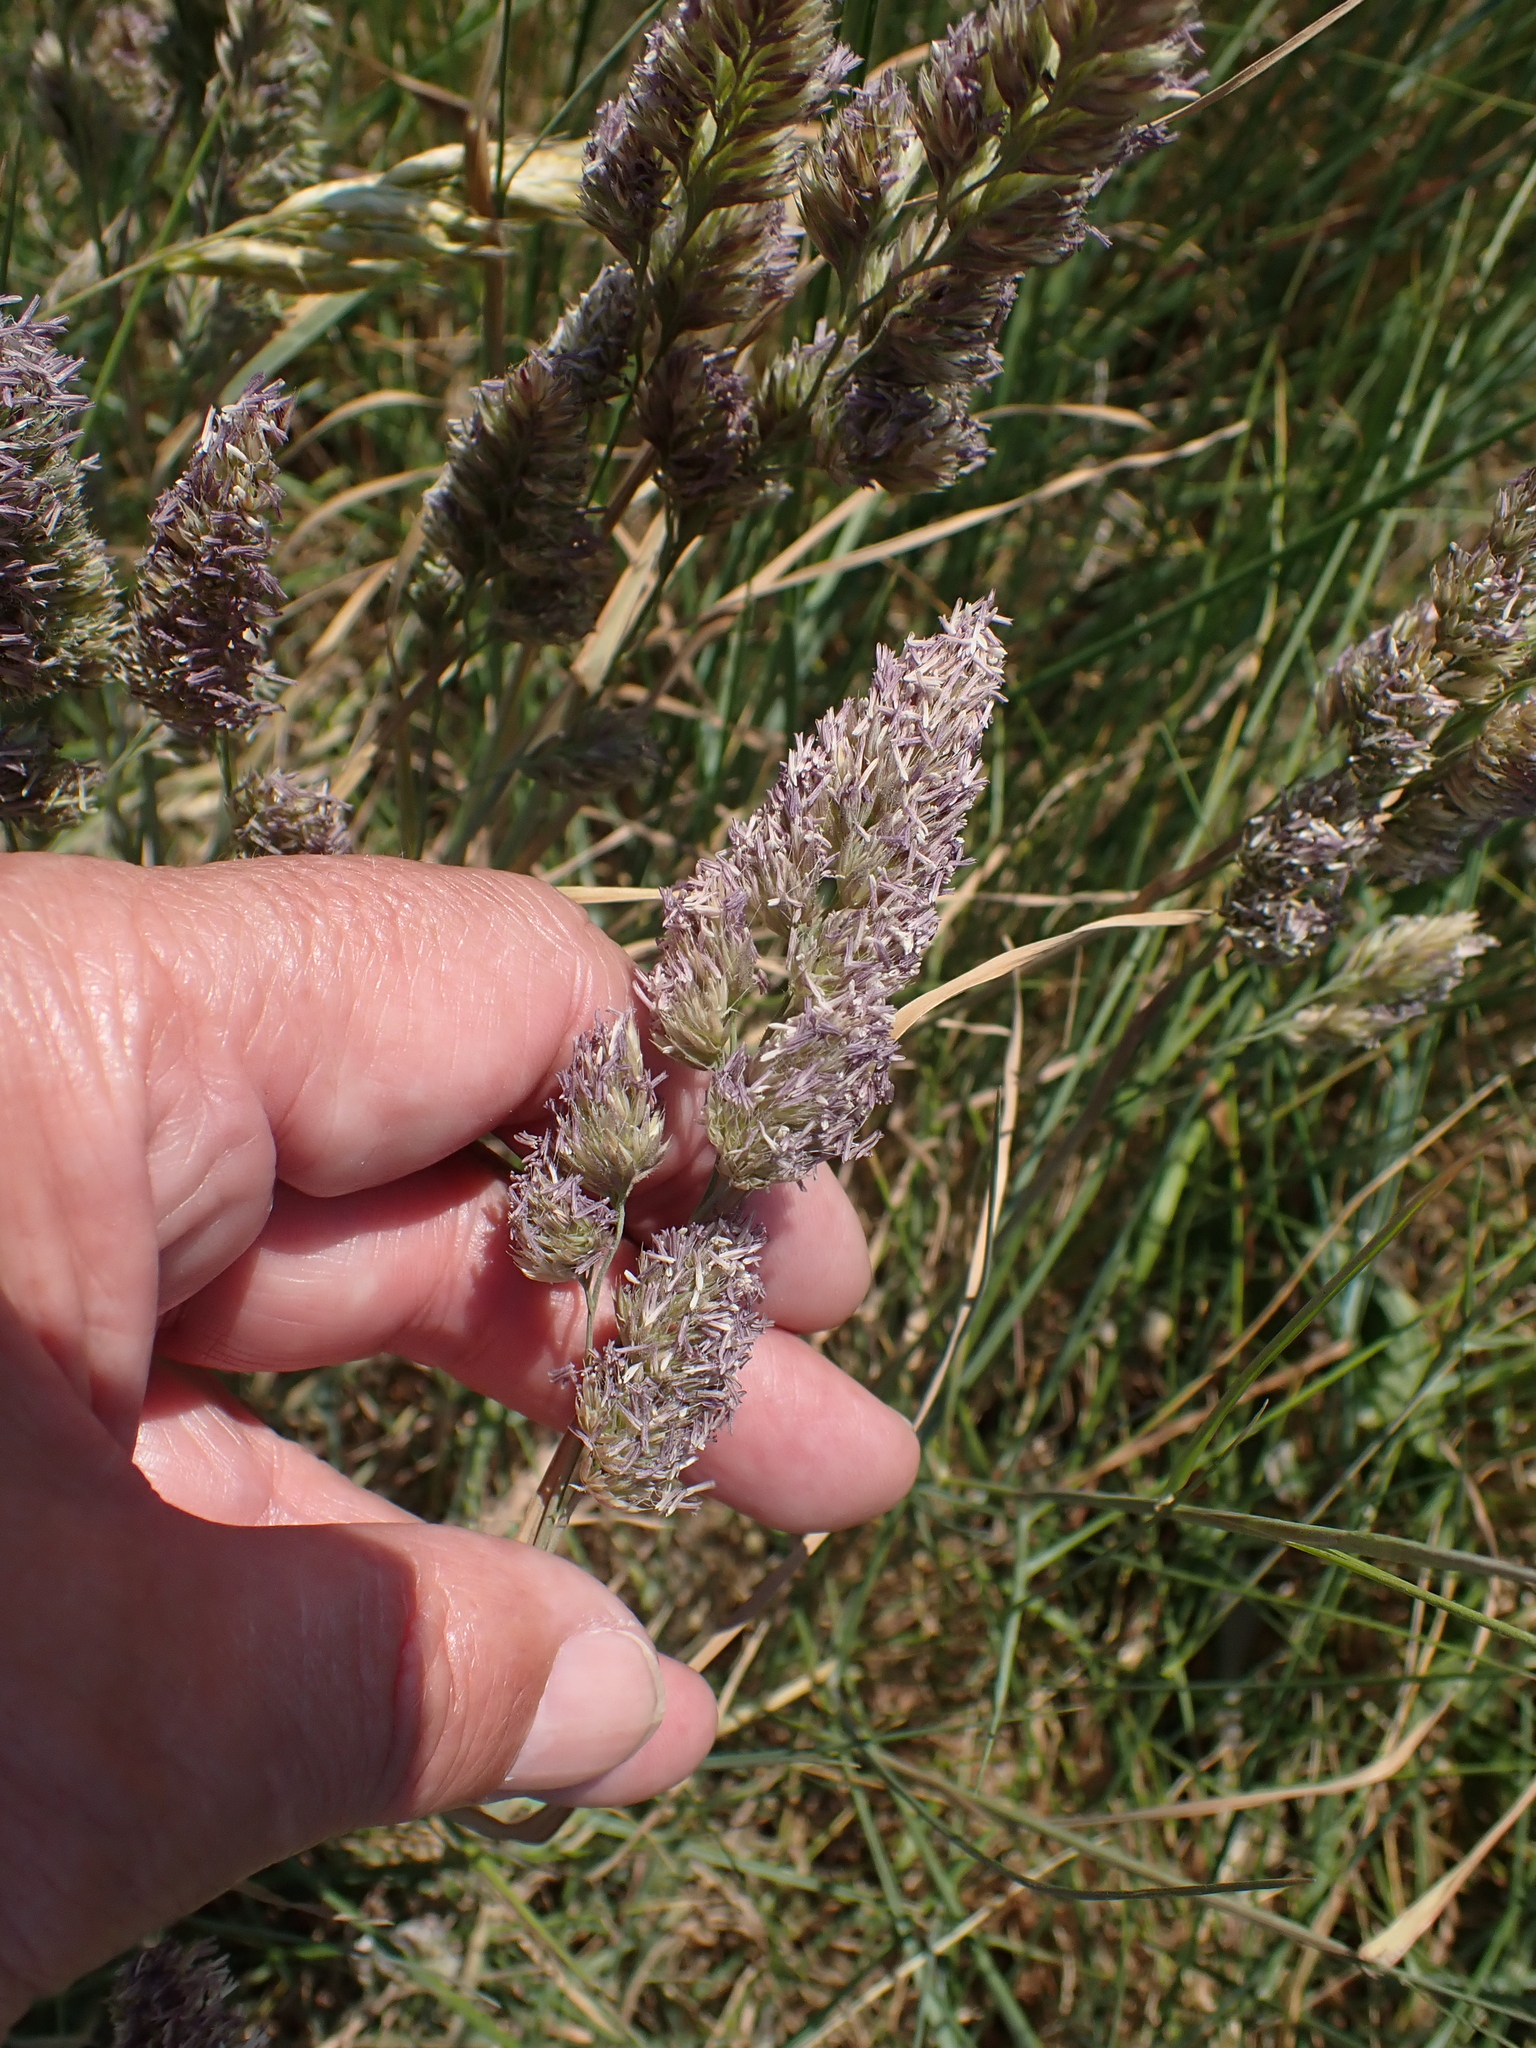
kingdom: Plantae
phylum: Tracheophyta
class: Liliopsida
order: Poales
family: Poaceae
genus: Dactylis
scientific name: Dactylis glomerata
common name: Orchardgrass
